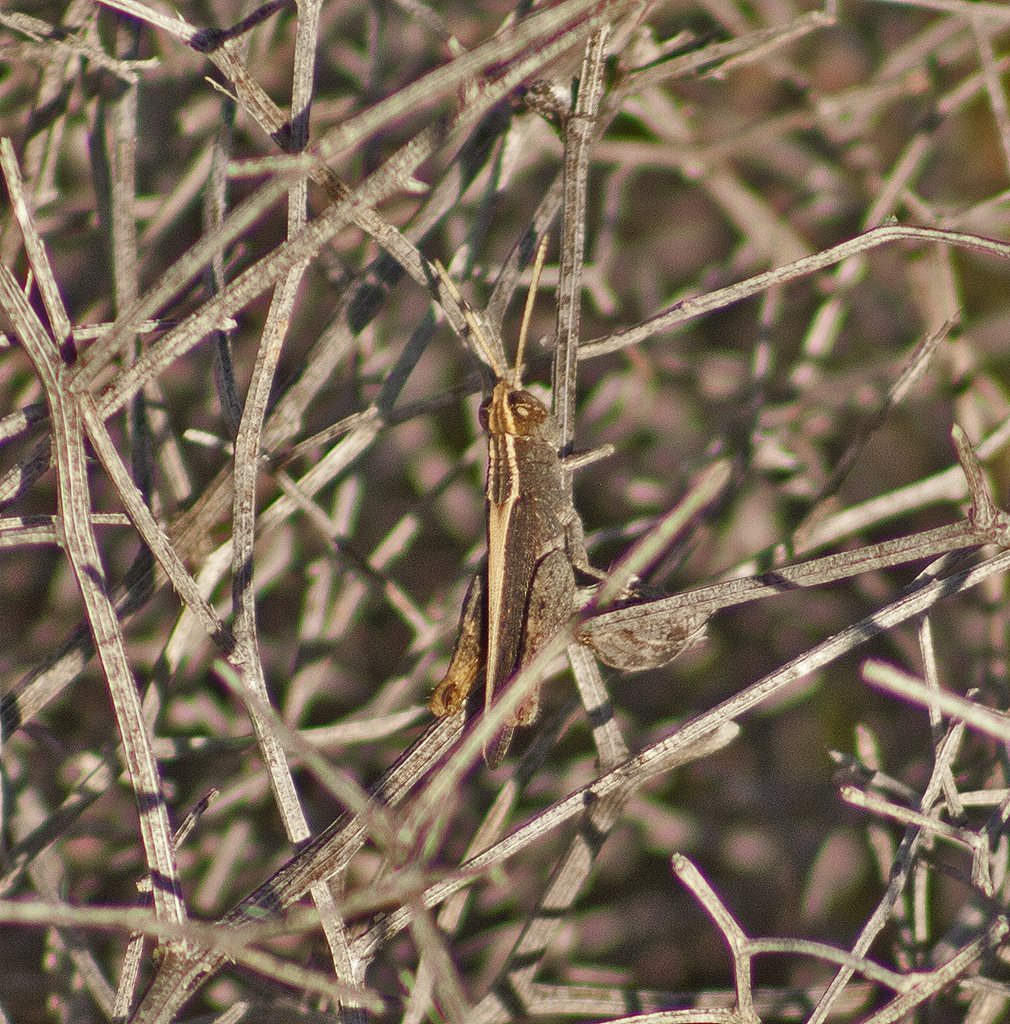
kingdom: Animalia
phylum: Arthropoda
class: Insecta
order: Orthoptera
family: Acrididae
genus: Apotropis
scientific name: Apotropis vittata
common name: Common striped grasshopper
